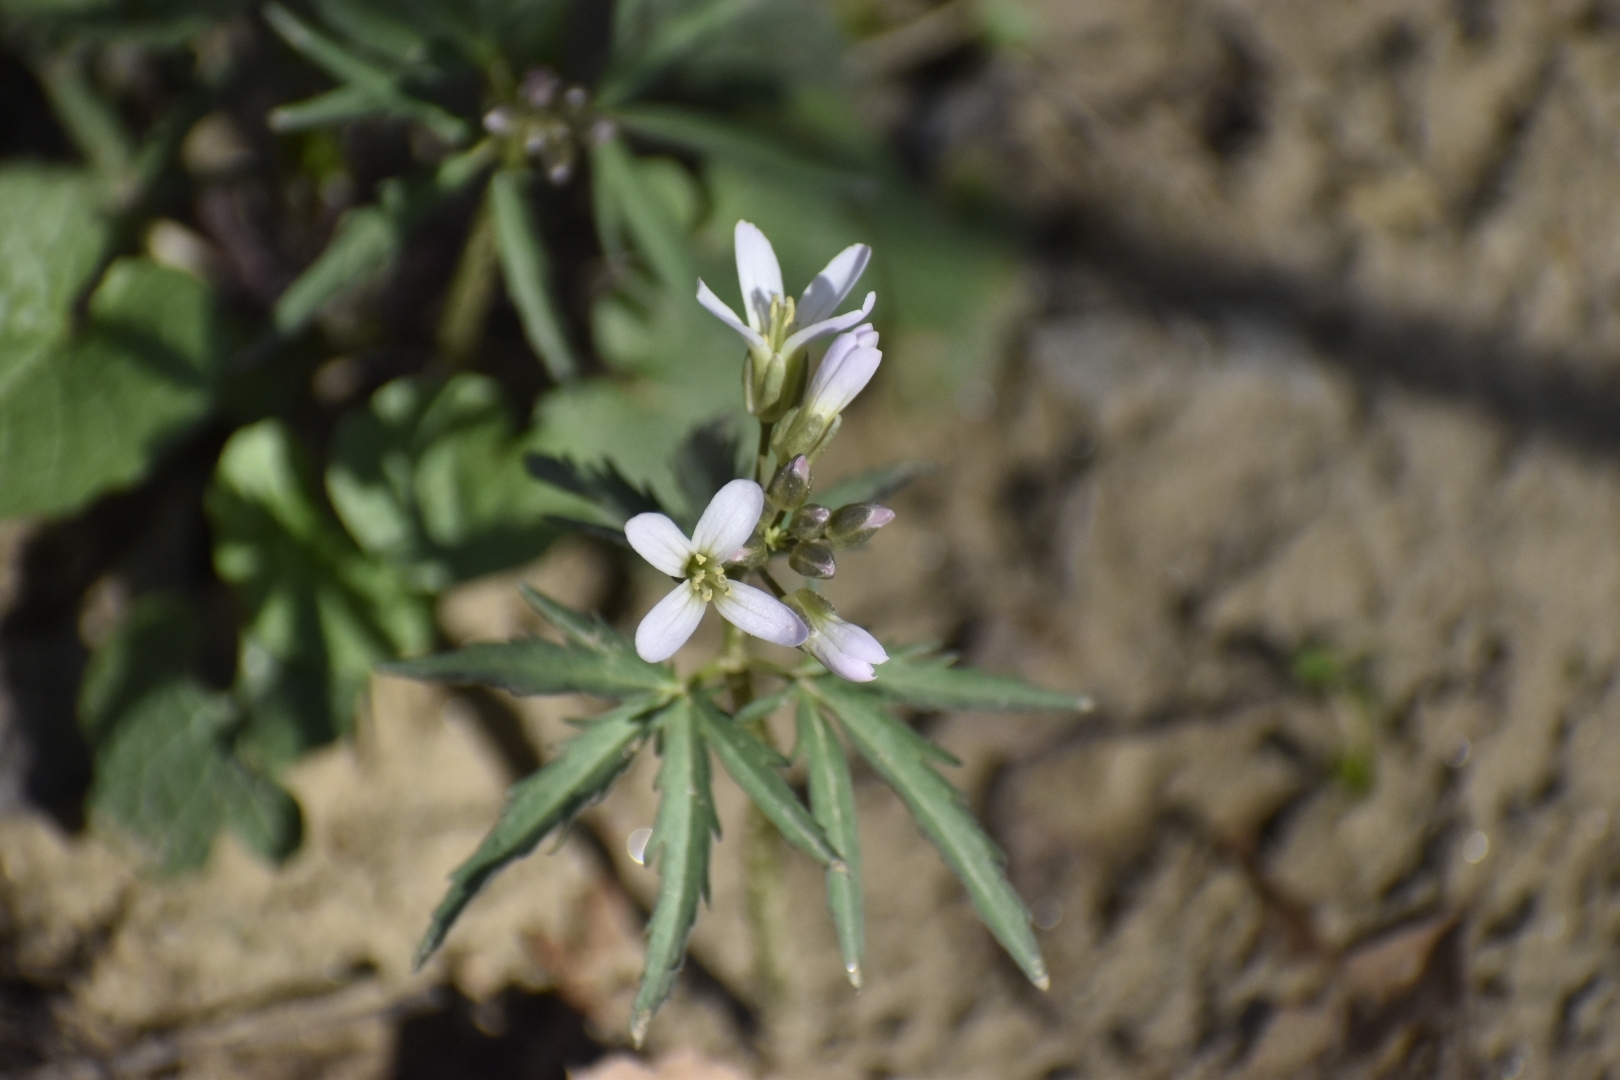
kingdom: Plantae
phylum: Tracheophyta
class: Magnoliopsida
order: Brassicales
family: Brassicaceae
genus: Cardamine
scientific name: Cardamine concatenata
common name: Cut-leaf toothcup
